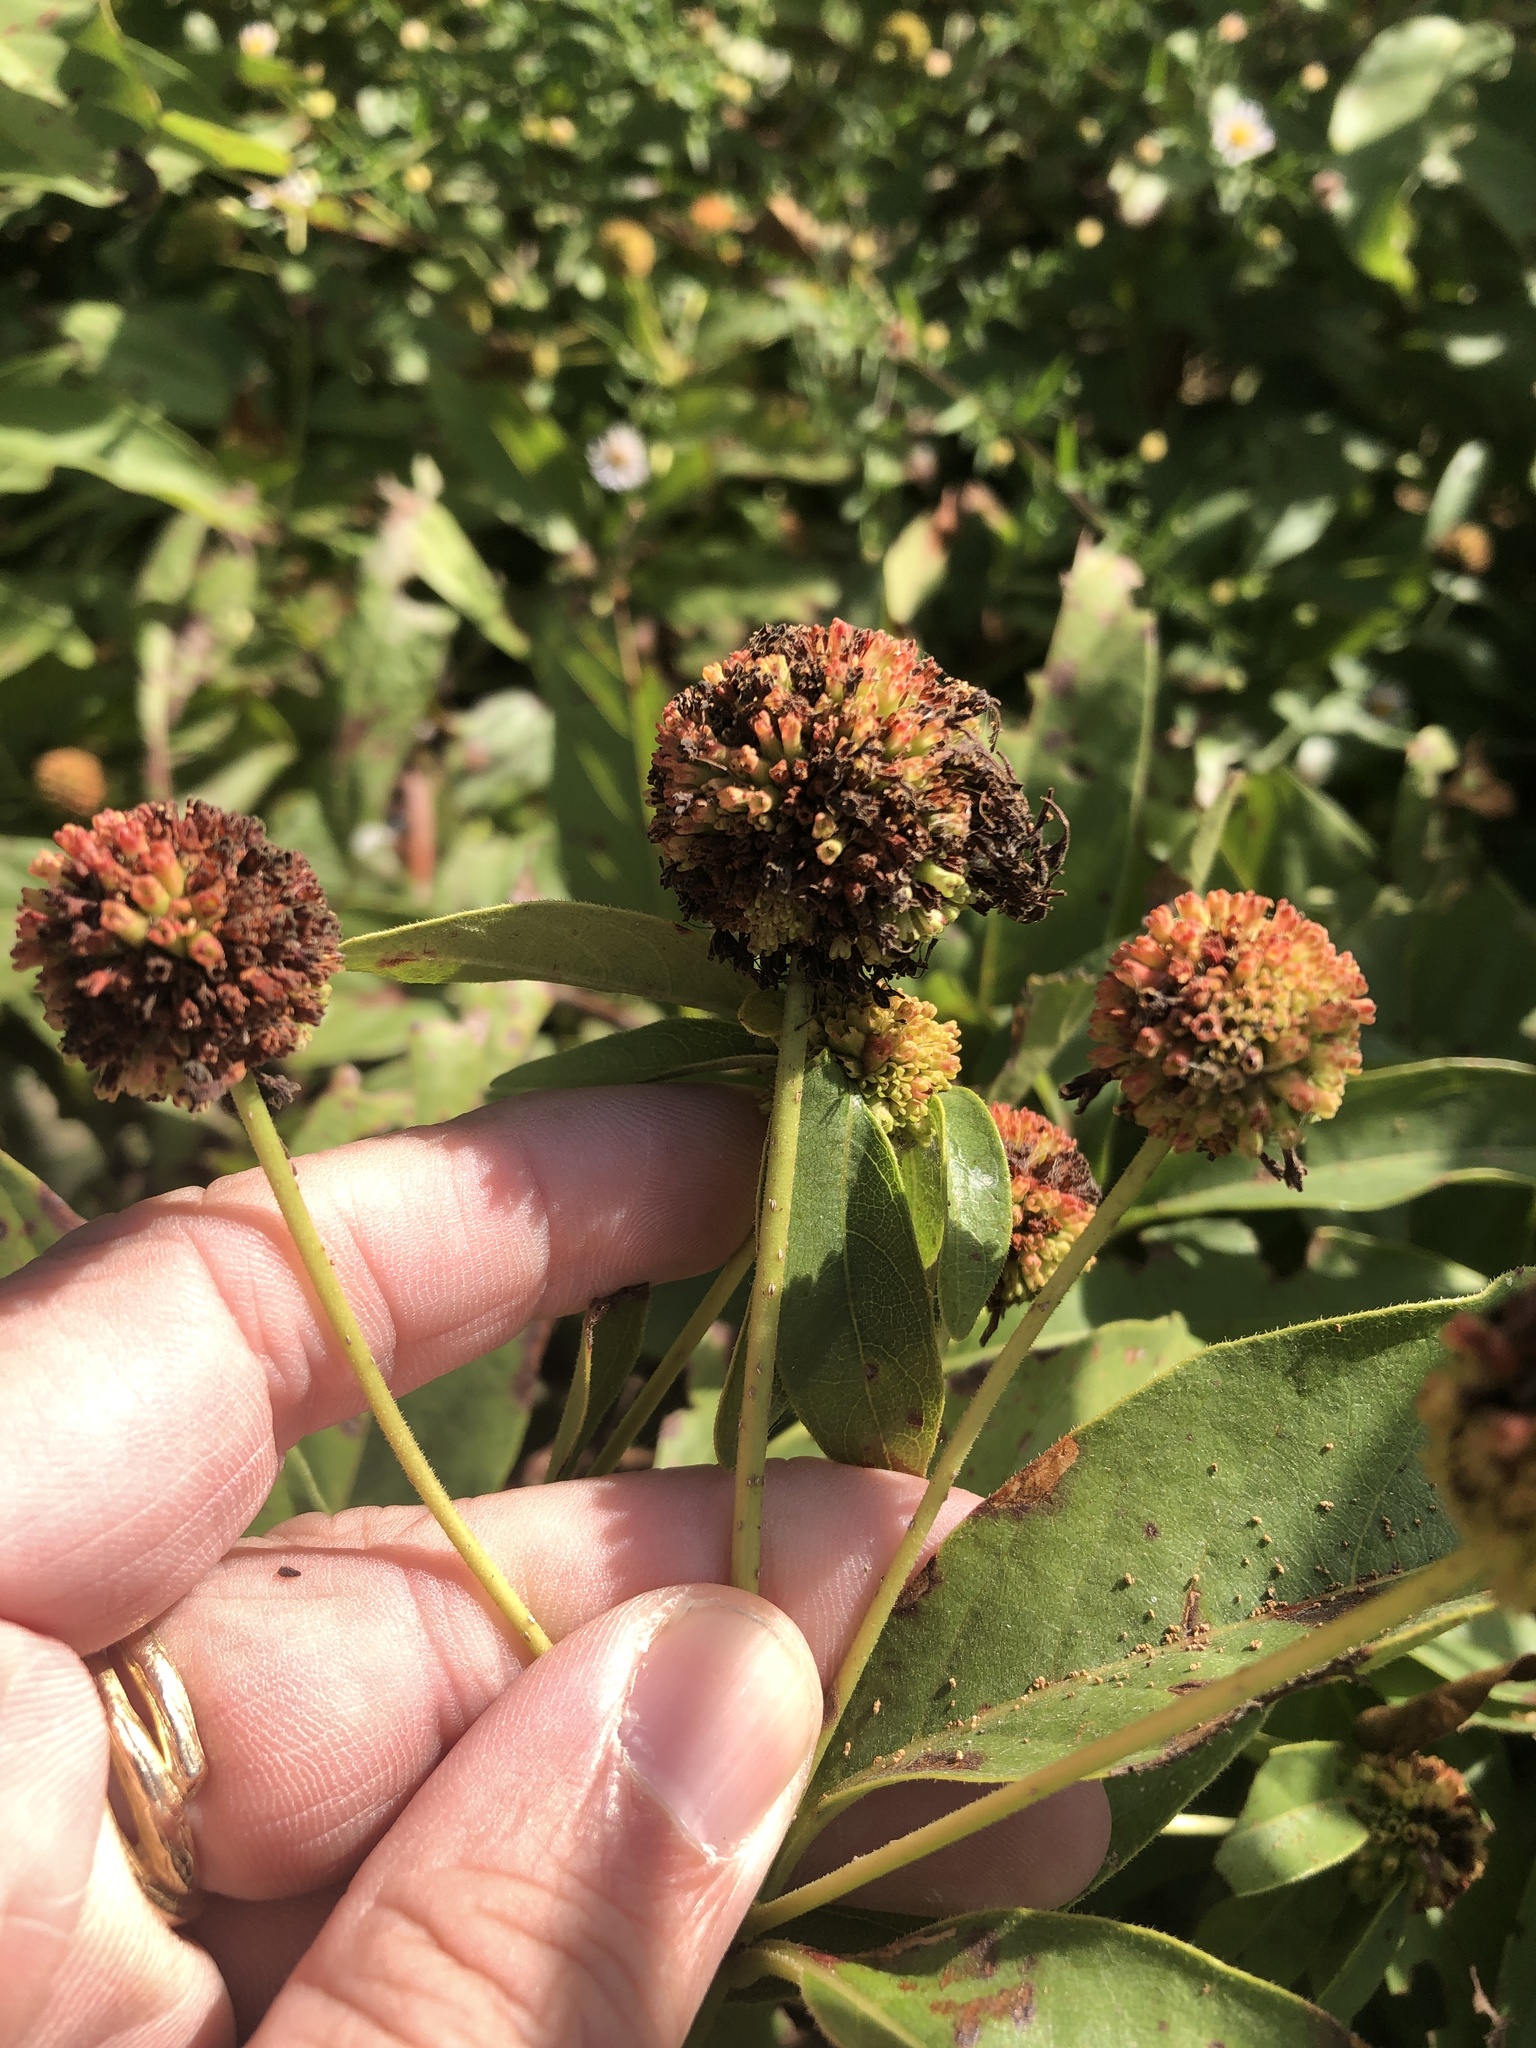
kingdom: Plantae
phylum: Tracheophyta
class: Magnoliopsida
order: Gentianales
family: Rubiaceae
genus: Cephalanthus
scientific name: Cephalanthus occidentalis
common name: Button-willow
